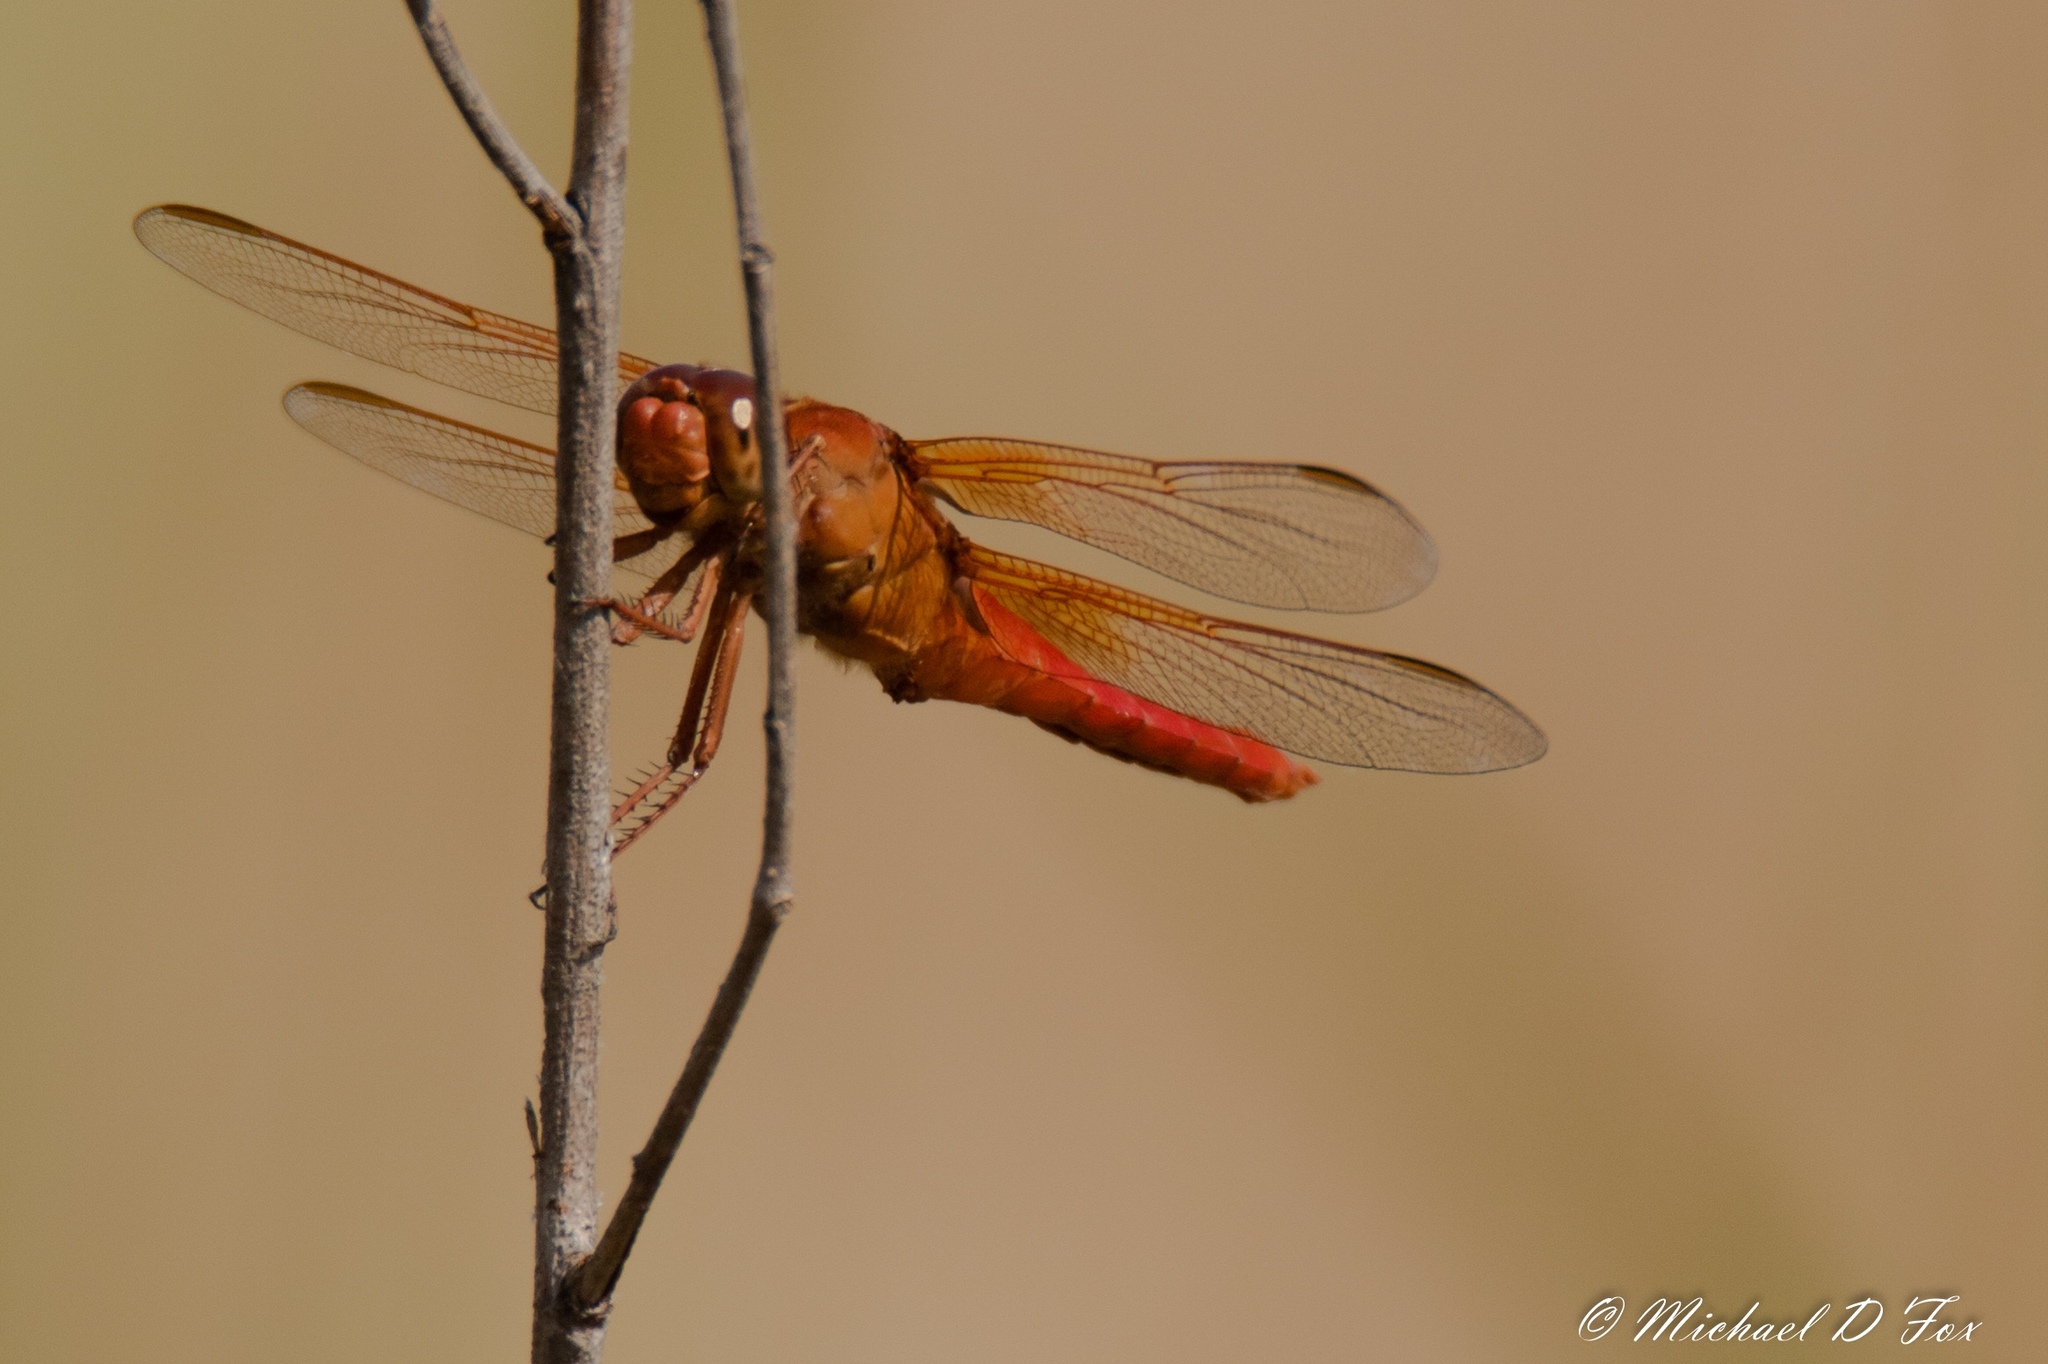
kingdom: Animalia
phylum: Arthropoda
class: Insecta
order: Odonata
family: Libellulidae
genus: Libellula
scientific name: Libellula croceipennis
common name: Neon skimmer
